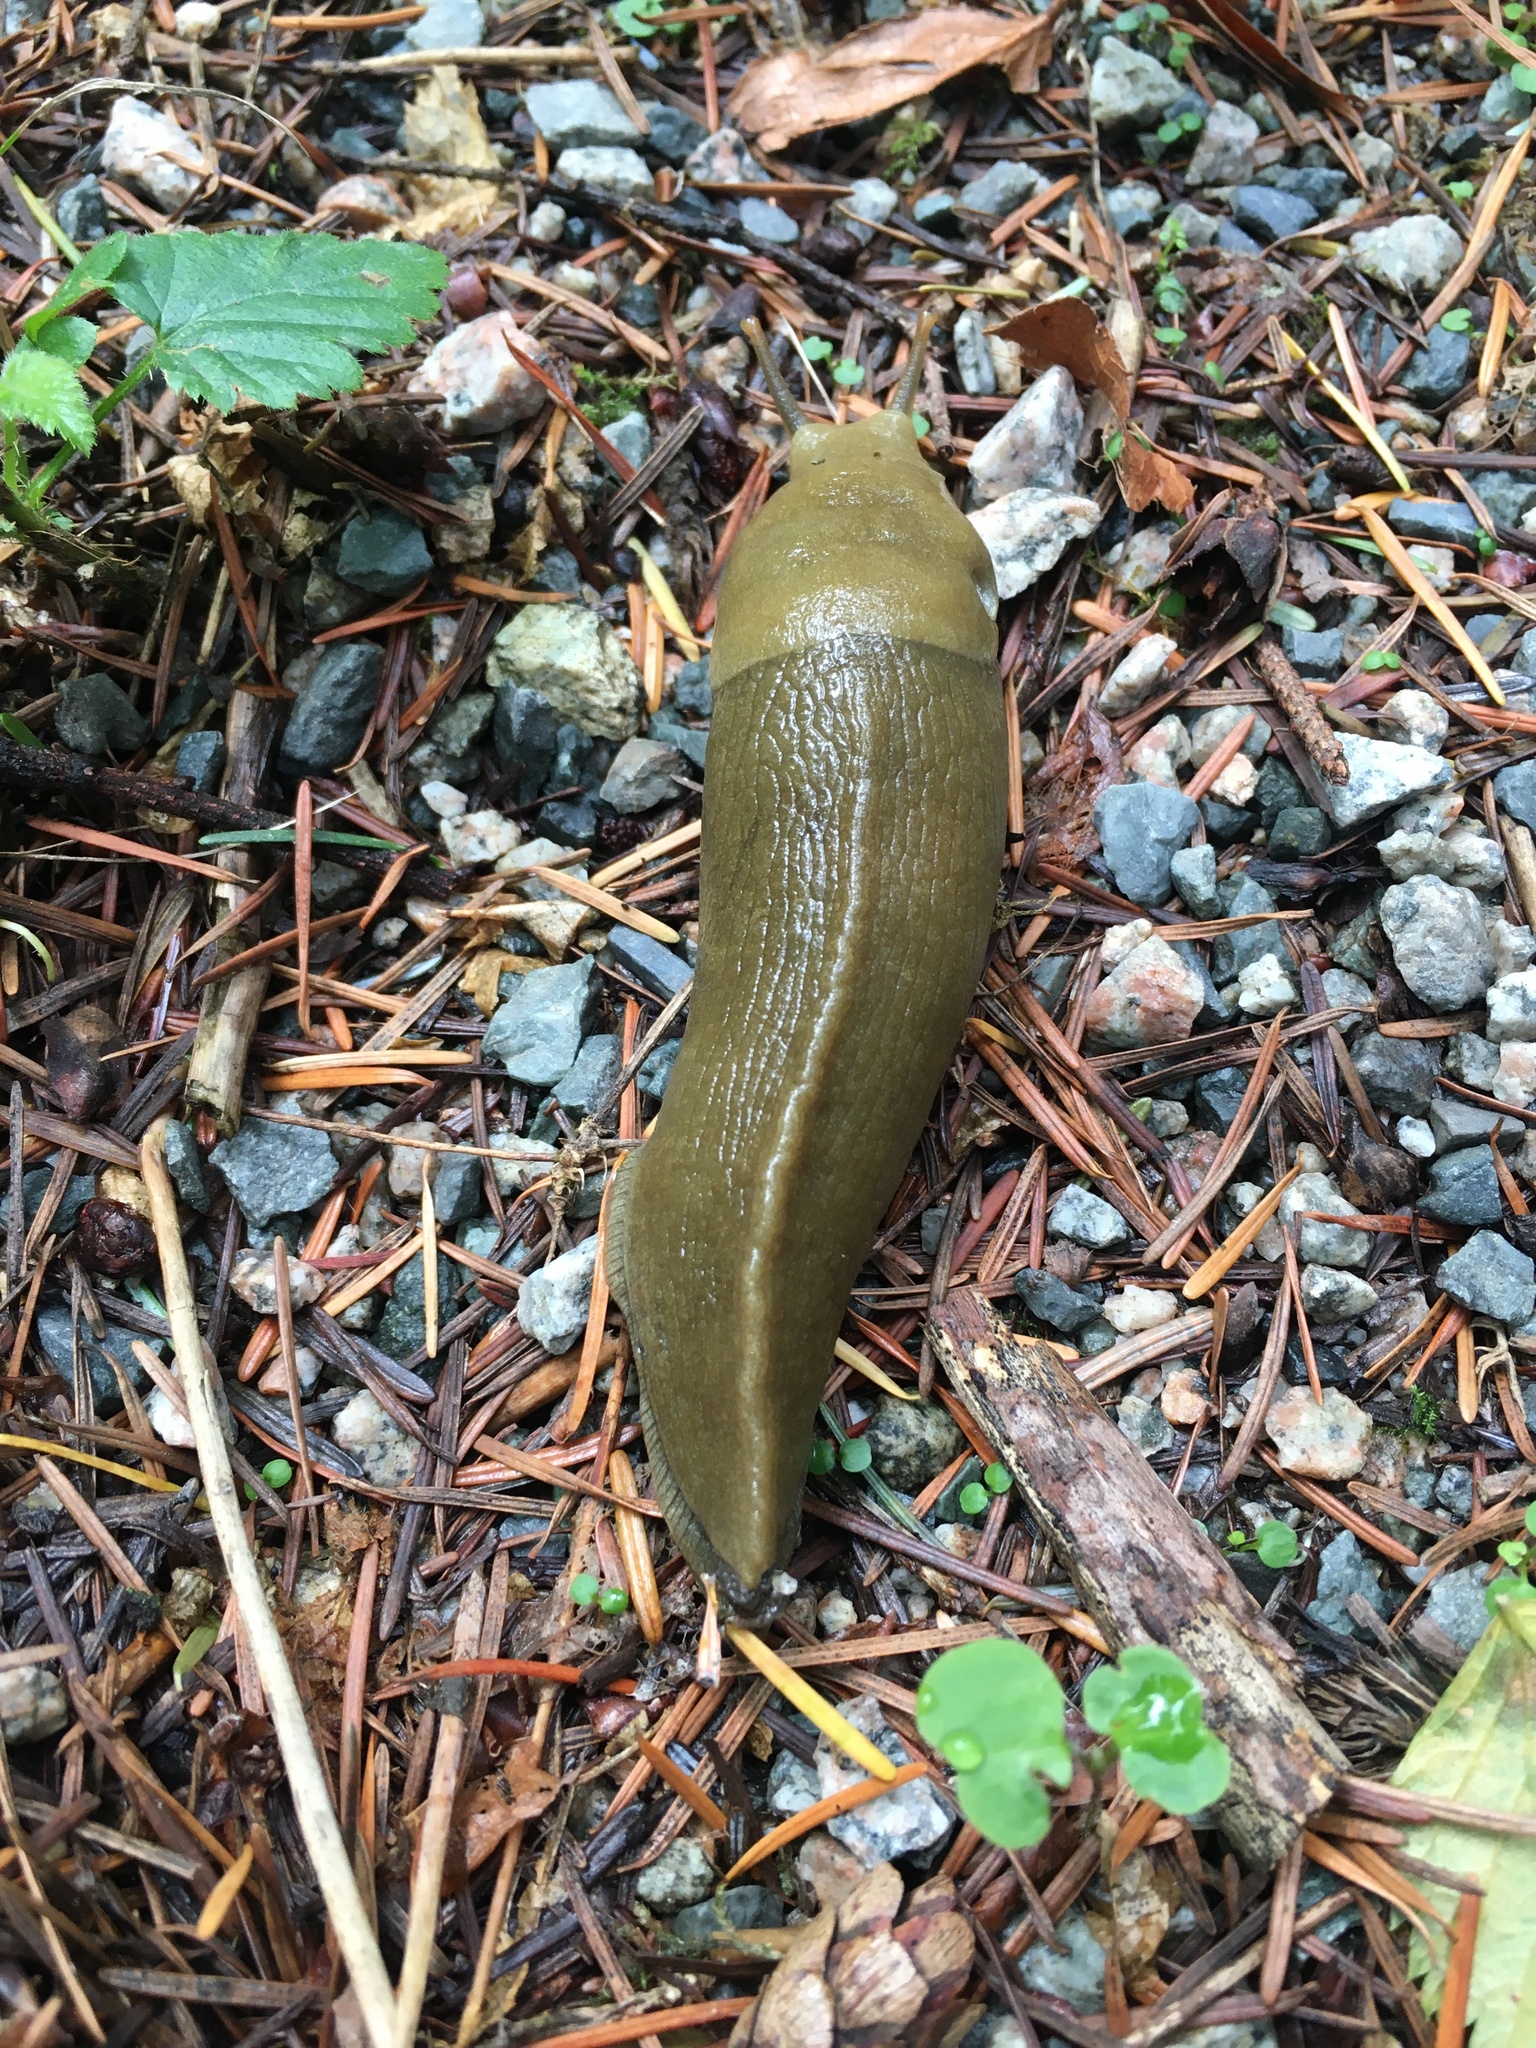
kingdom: Animalia
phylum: Mollusca
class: Gastropoda
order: Stylommatophora
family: Ariolimacidae
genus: Ariolimax
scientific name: Ariolimax columbianus
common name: Pacific banana slug
